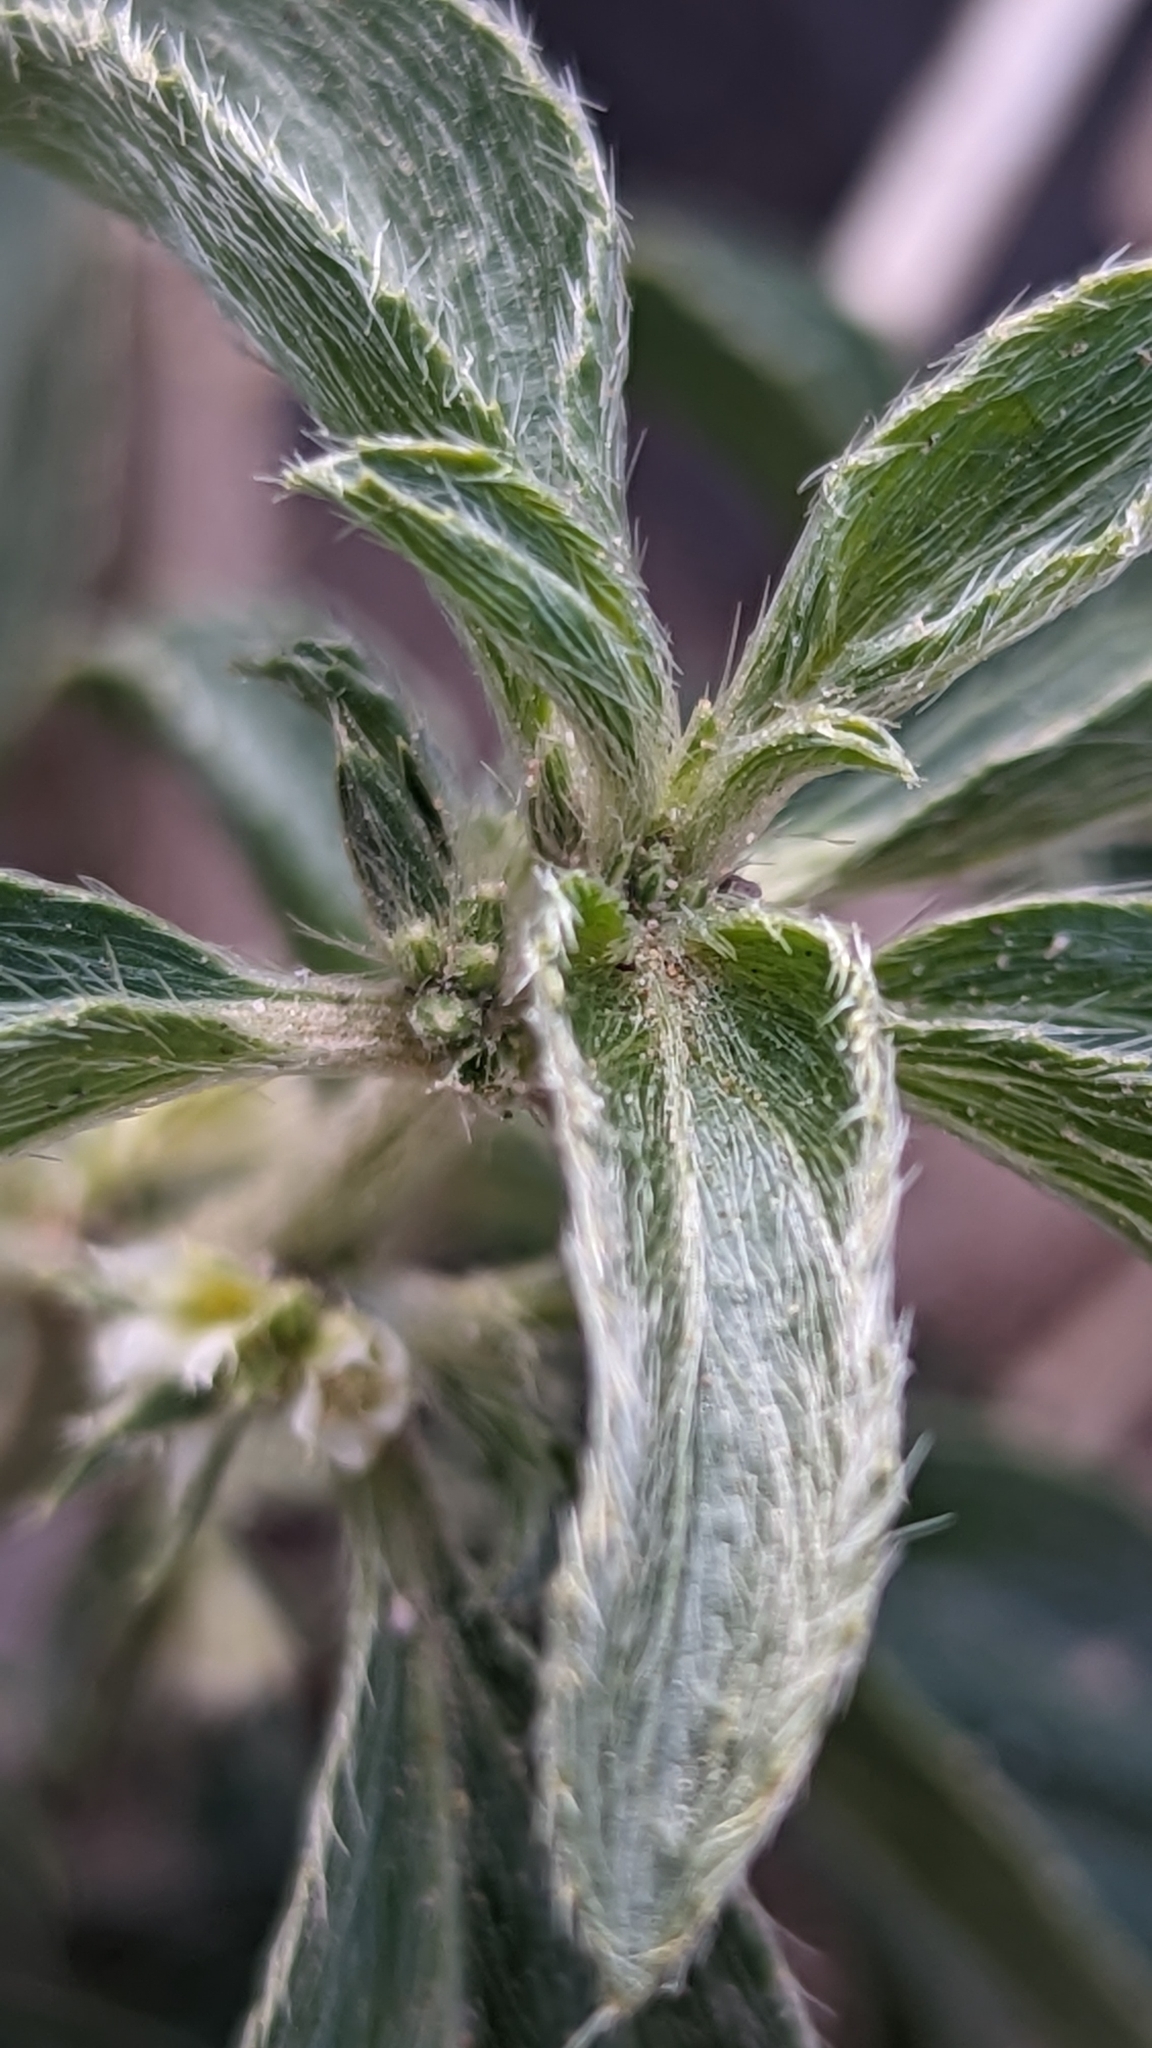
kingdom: Plantae
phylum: Tracheophyta
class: Magnoliopsida
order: Malpighiales
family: Euphorbiaceae
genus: Ditaxis
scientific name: Ditaxis serrata
